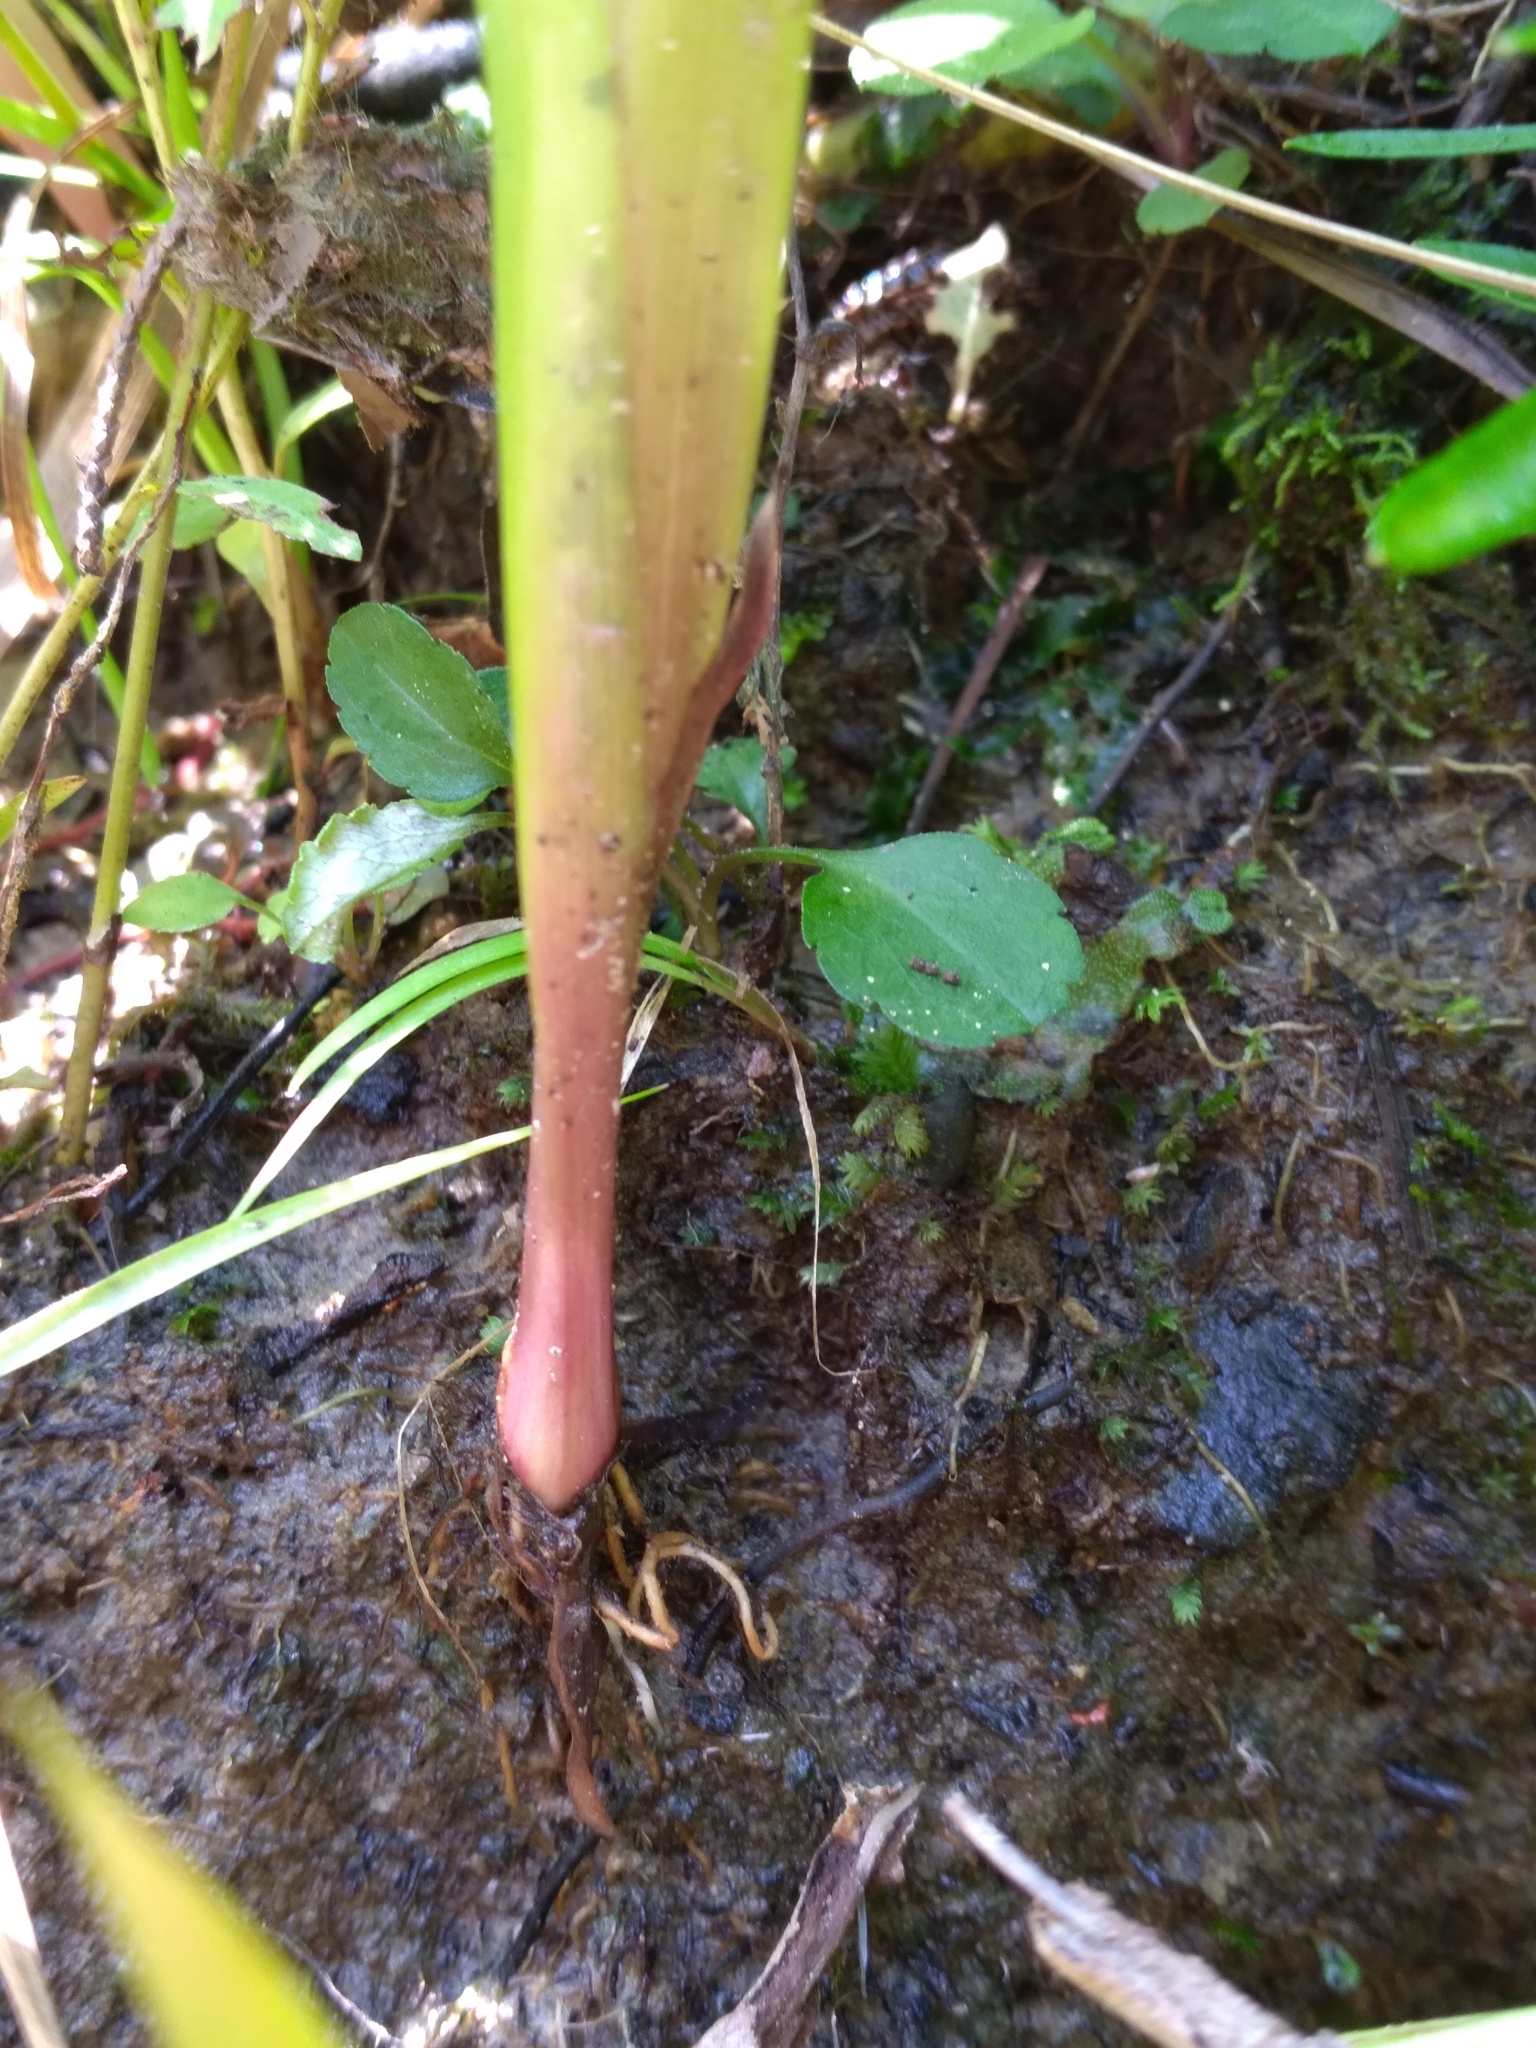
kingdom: Plantae
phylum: Tracheophyta
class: Liliopsida
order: Poales
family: Xyridaceae
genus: Xyris
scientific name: Xyris tennesseensis
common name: Tennessee yellow-eyed-grass
